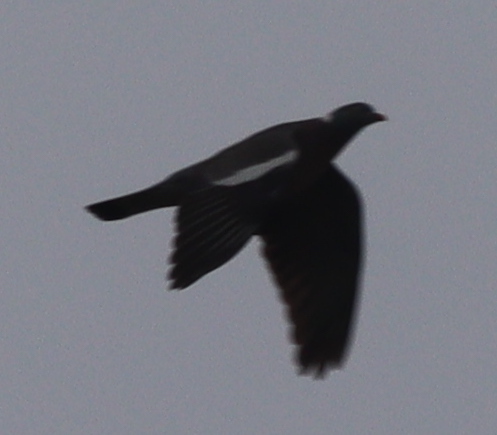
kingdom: Animalia
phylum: Chordata
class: Aves
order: Columbiformes
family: Columbidae
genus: Columba
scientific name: Columba palumbus
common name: Common wood pigeon
